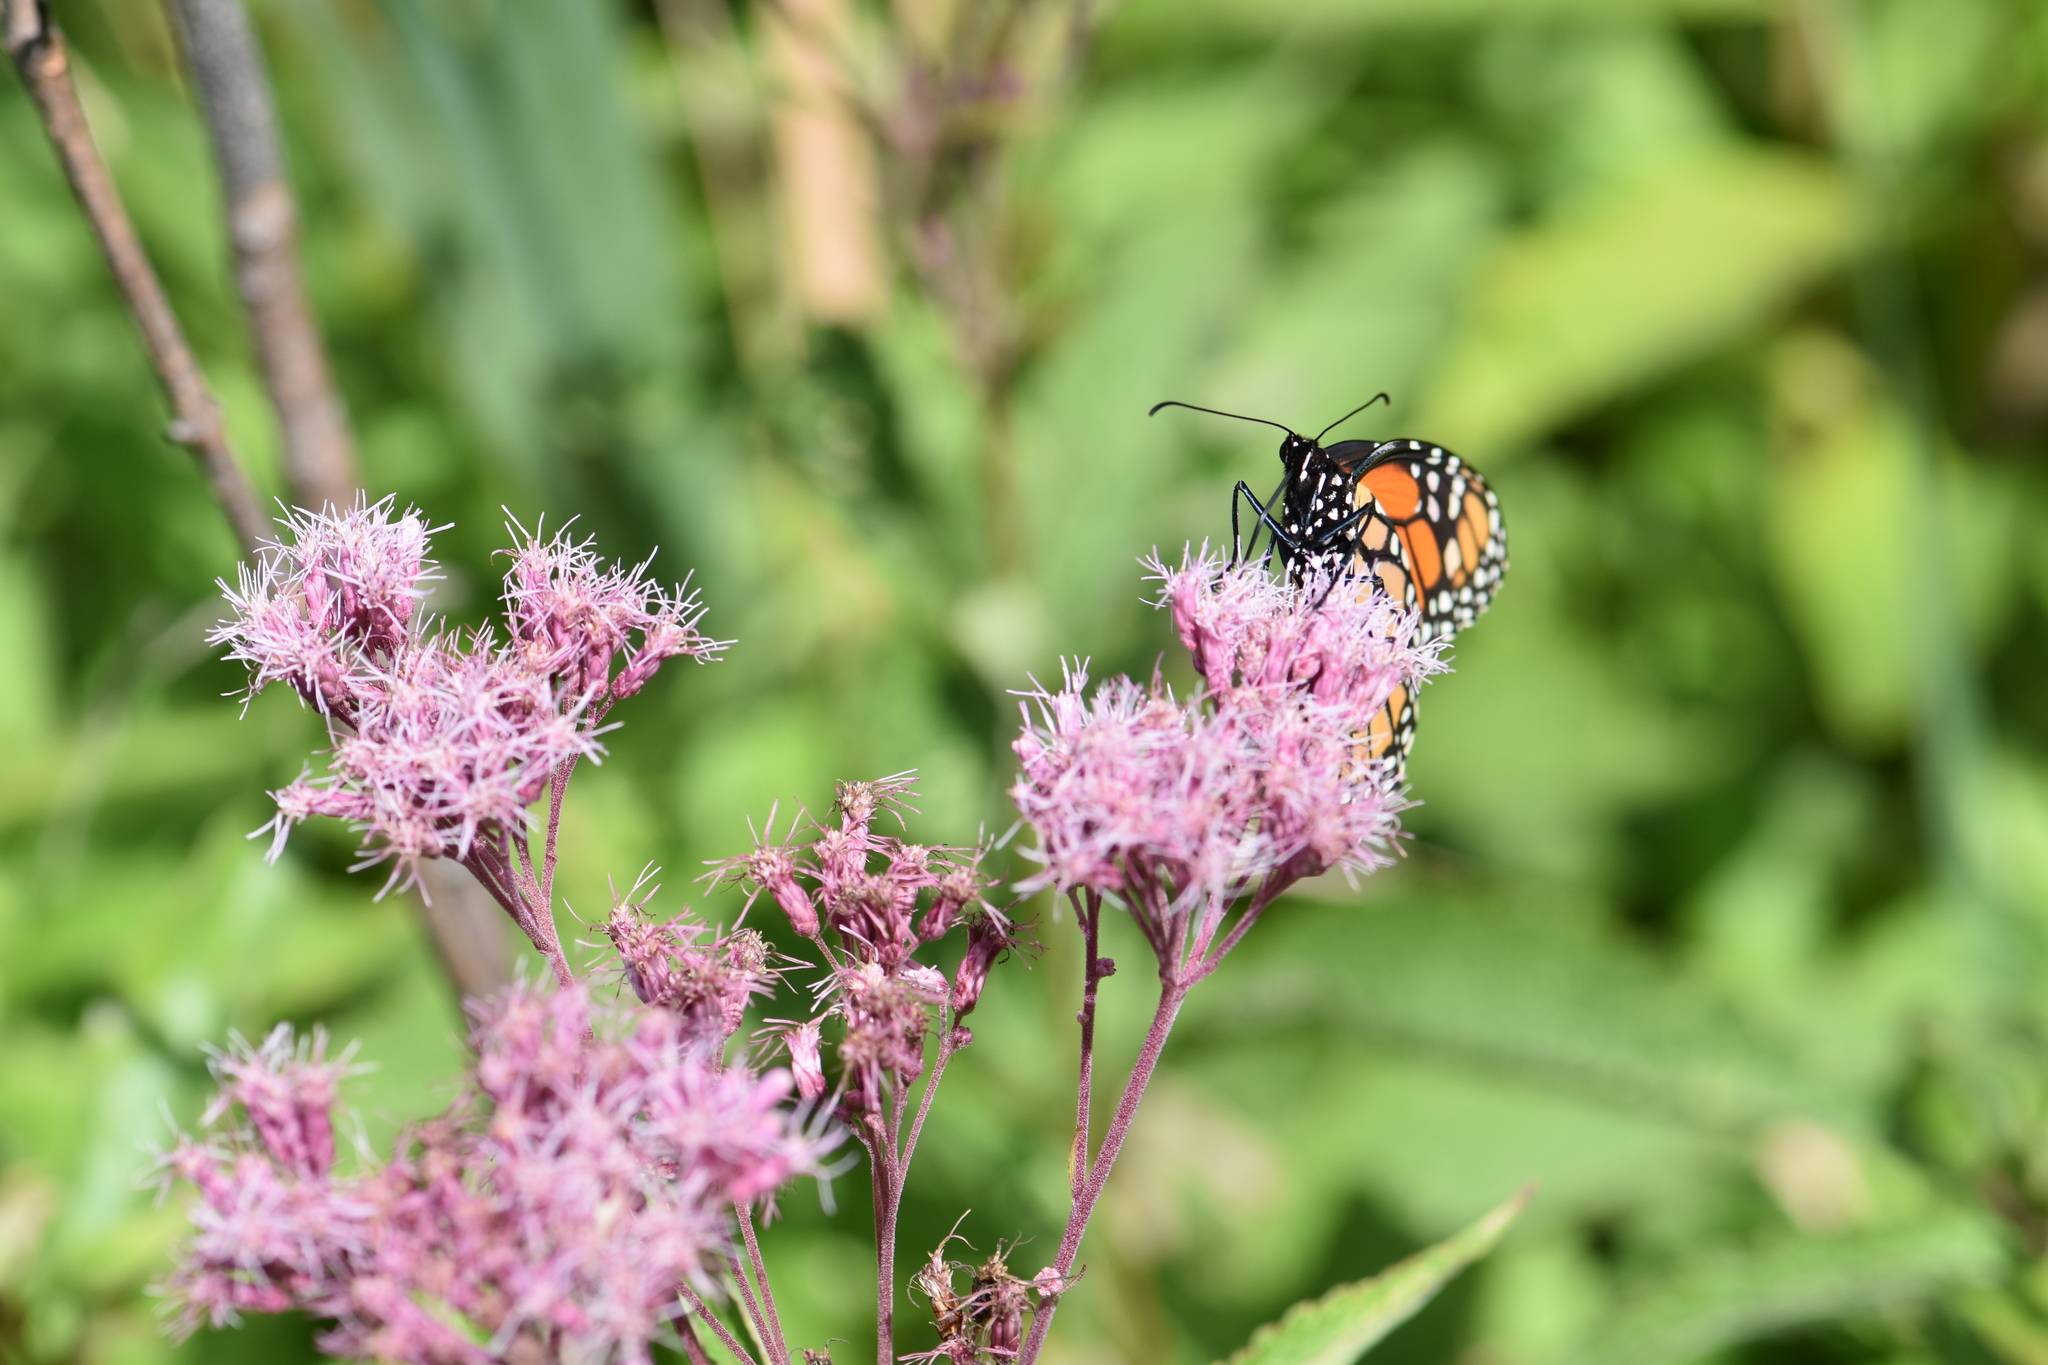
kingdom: Animalia
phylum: Arthropoda
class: Insecta
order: Lepidoptera
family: Nymphalidae
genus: Danaus
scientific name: Danaus plexippus
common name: Monarch
